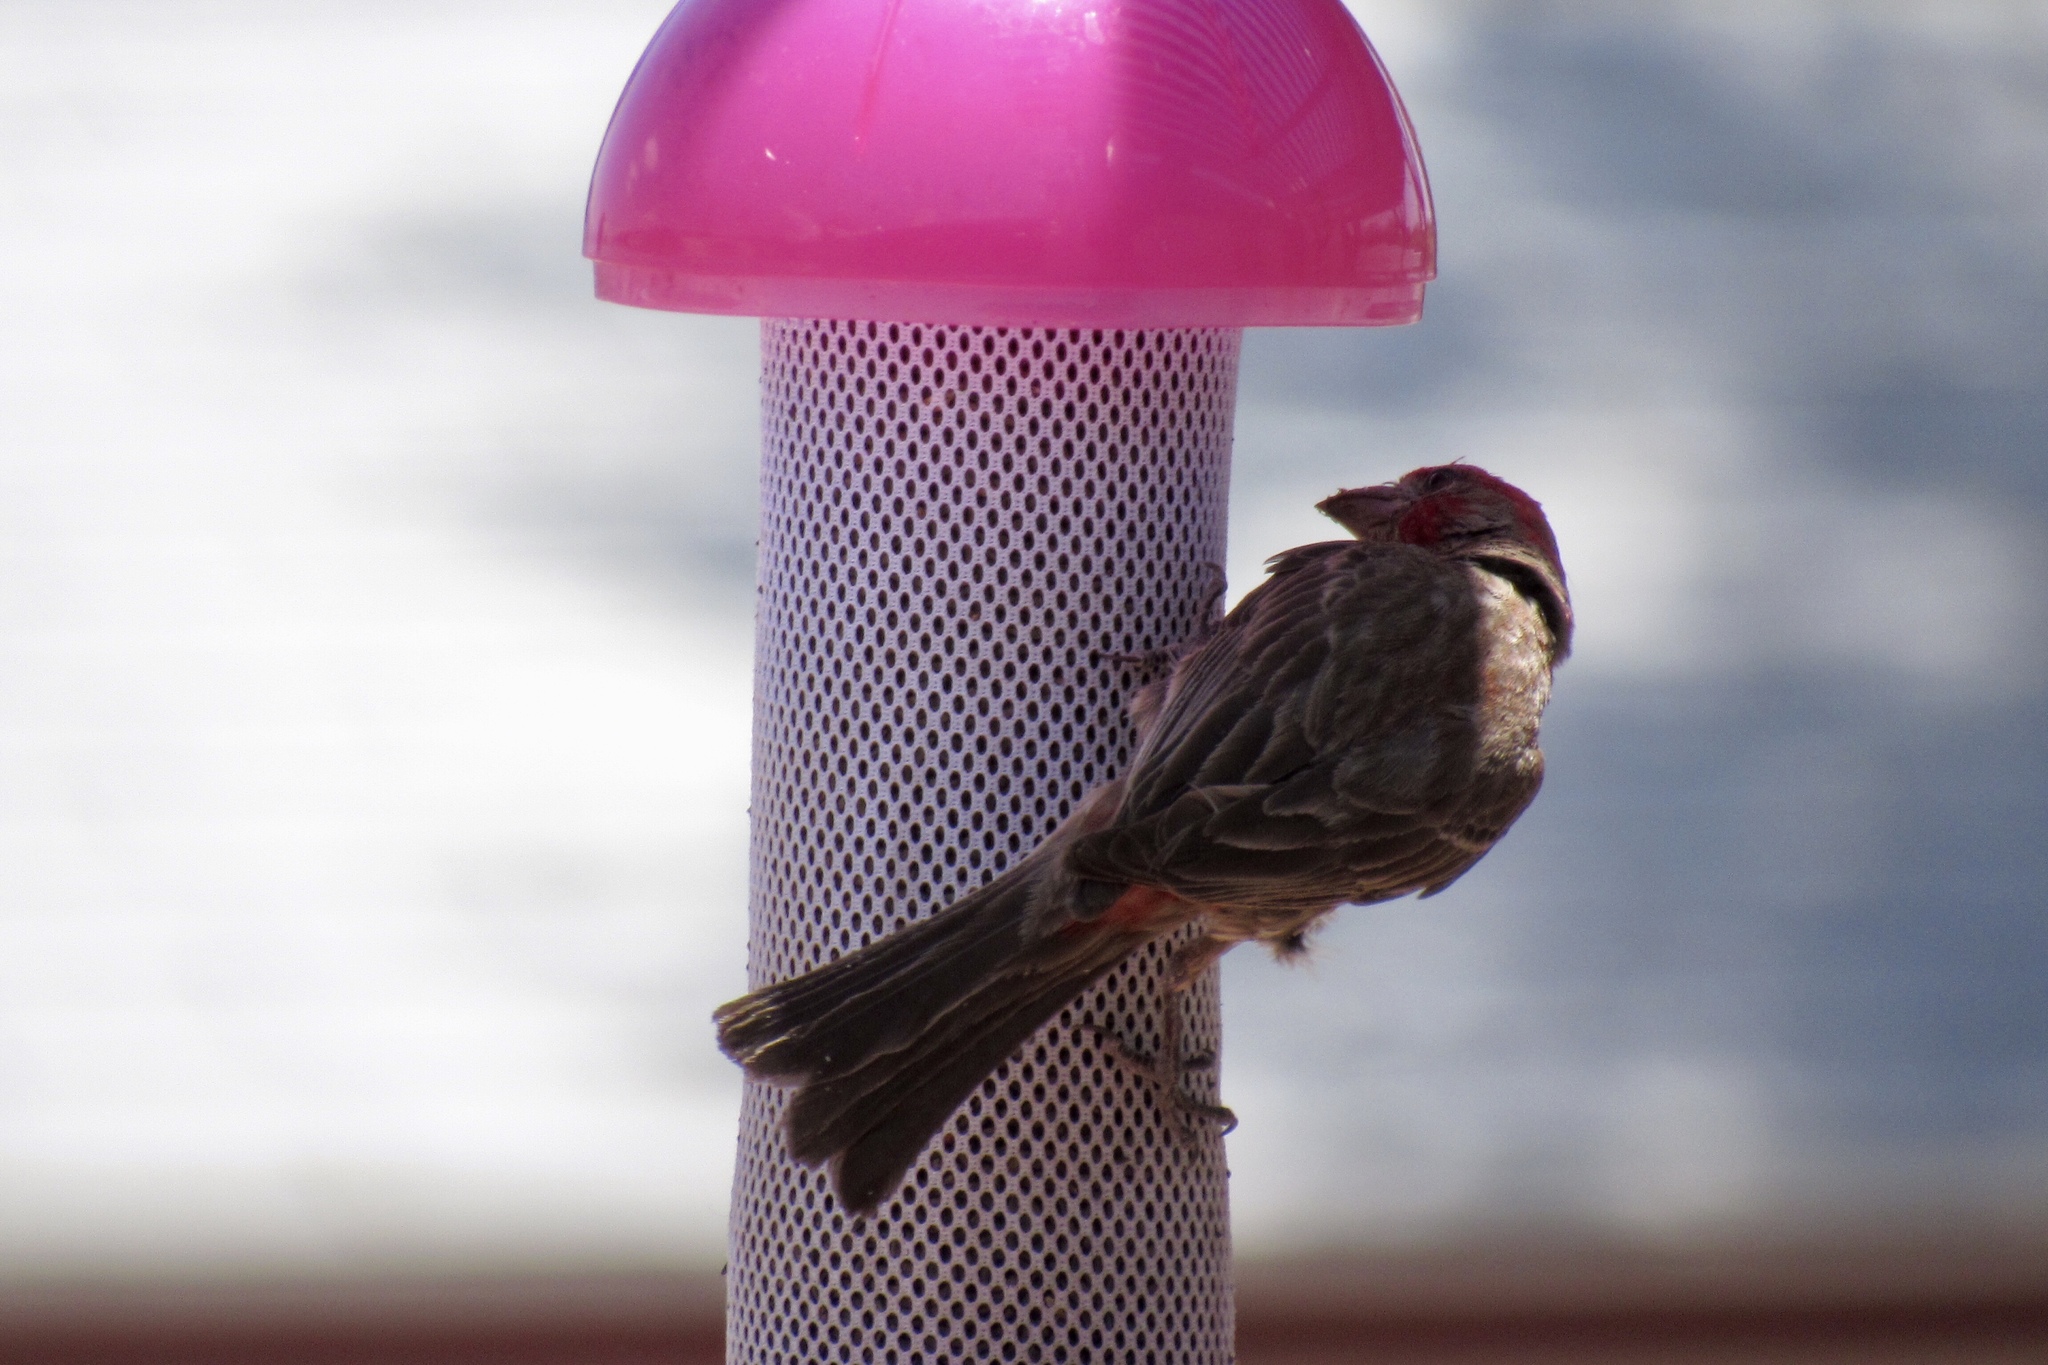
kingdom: Animalia
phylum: Chordata
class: Aves
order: Passeriformes
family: Fringillidae
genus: Haemorhous
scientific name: Haemorhous mexicanus
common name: House finch
